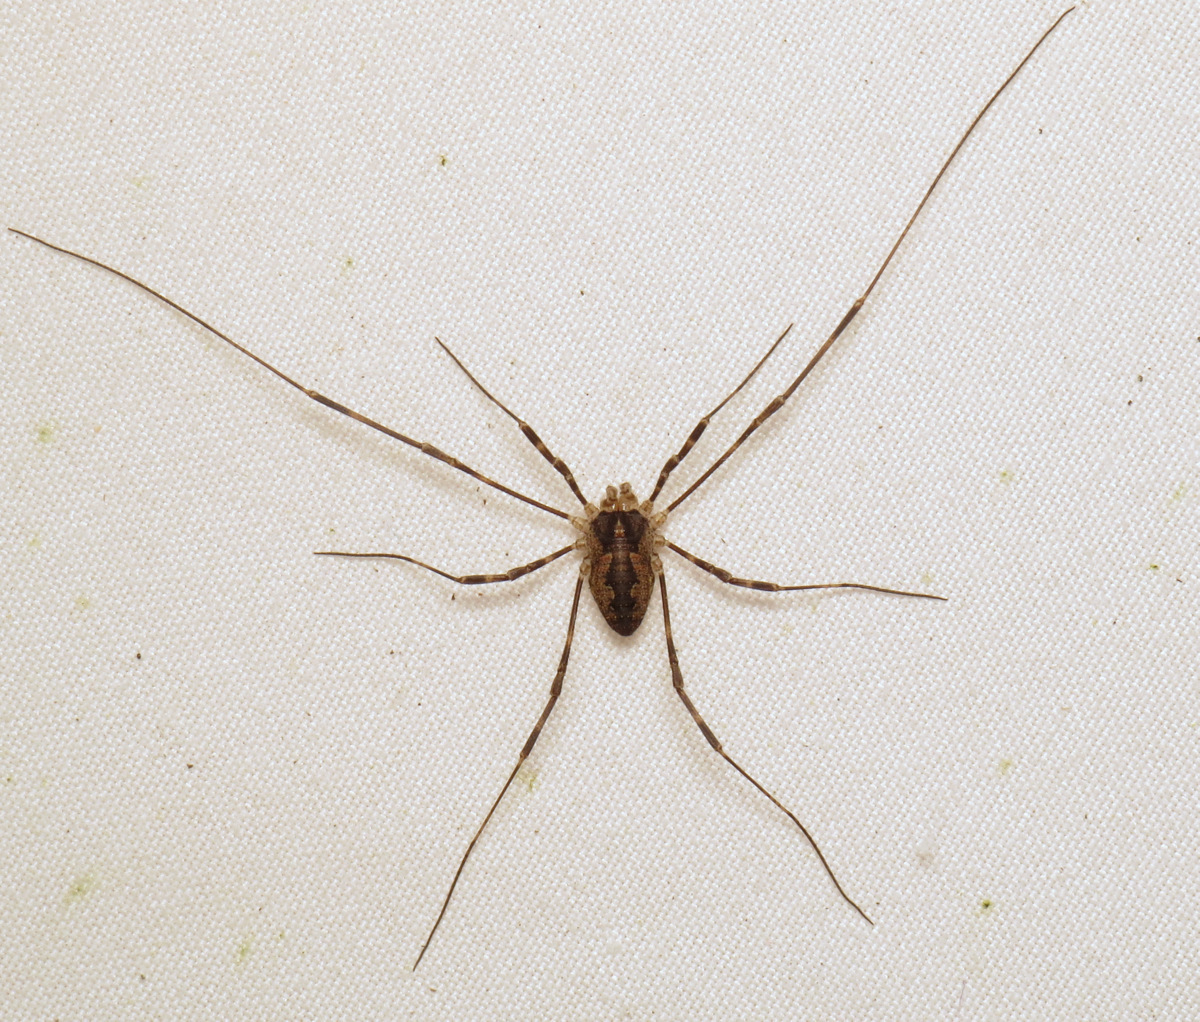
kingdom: Animalia
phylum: Arthropoda
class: Arachnida
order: Opiliones
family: Phalangiidae
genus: Odiellus
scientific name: Odiellus pictus
